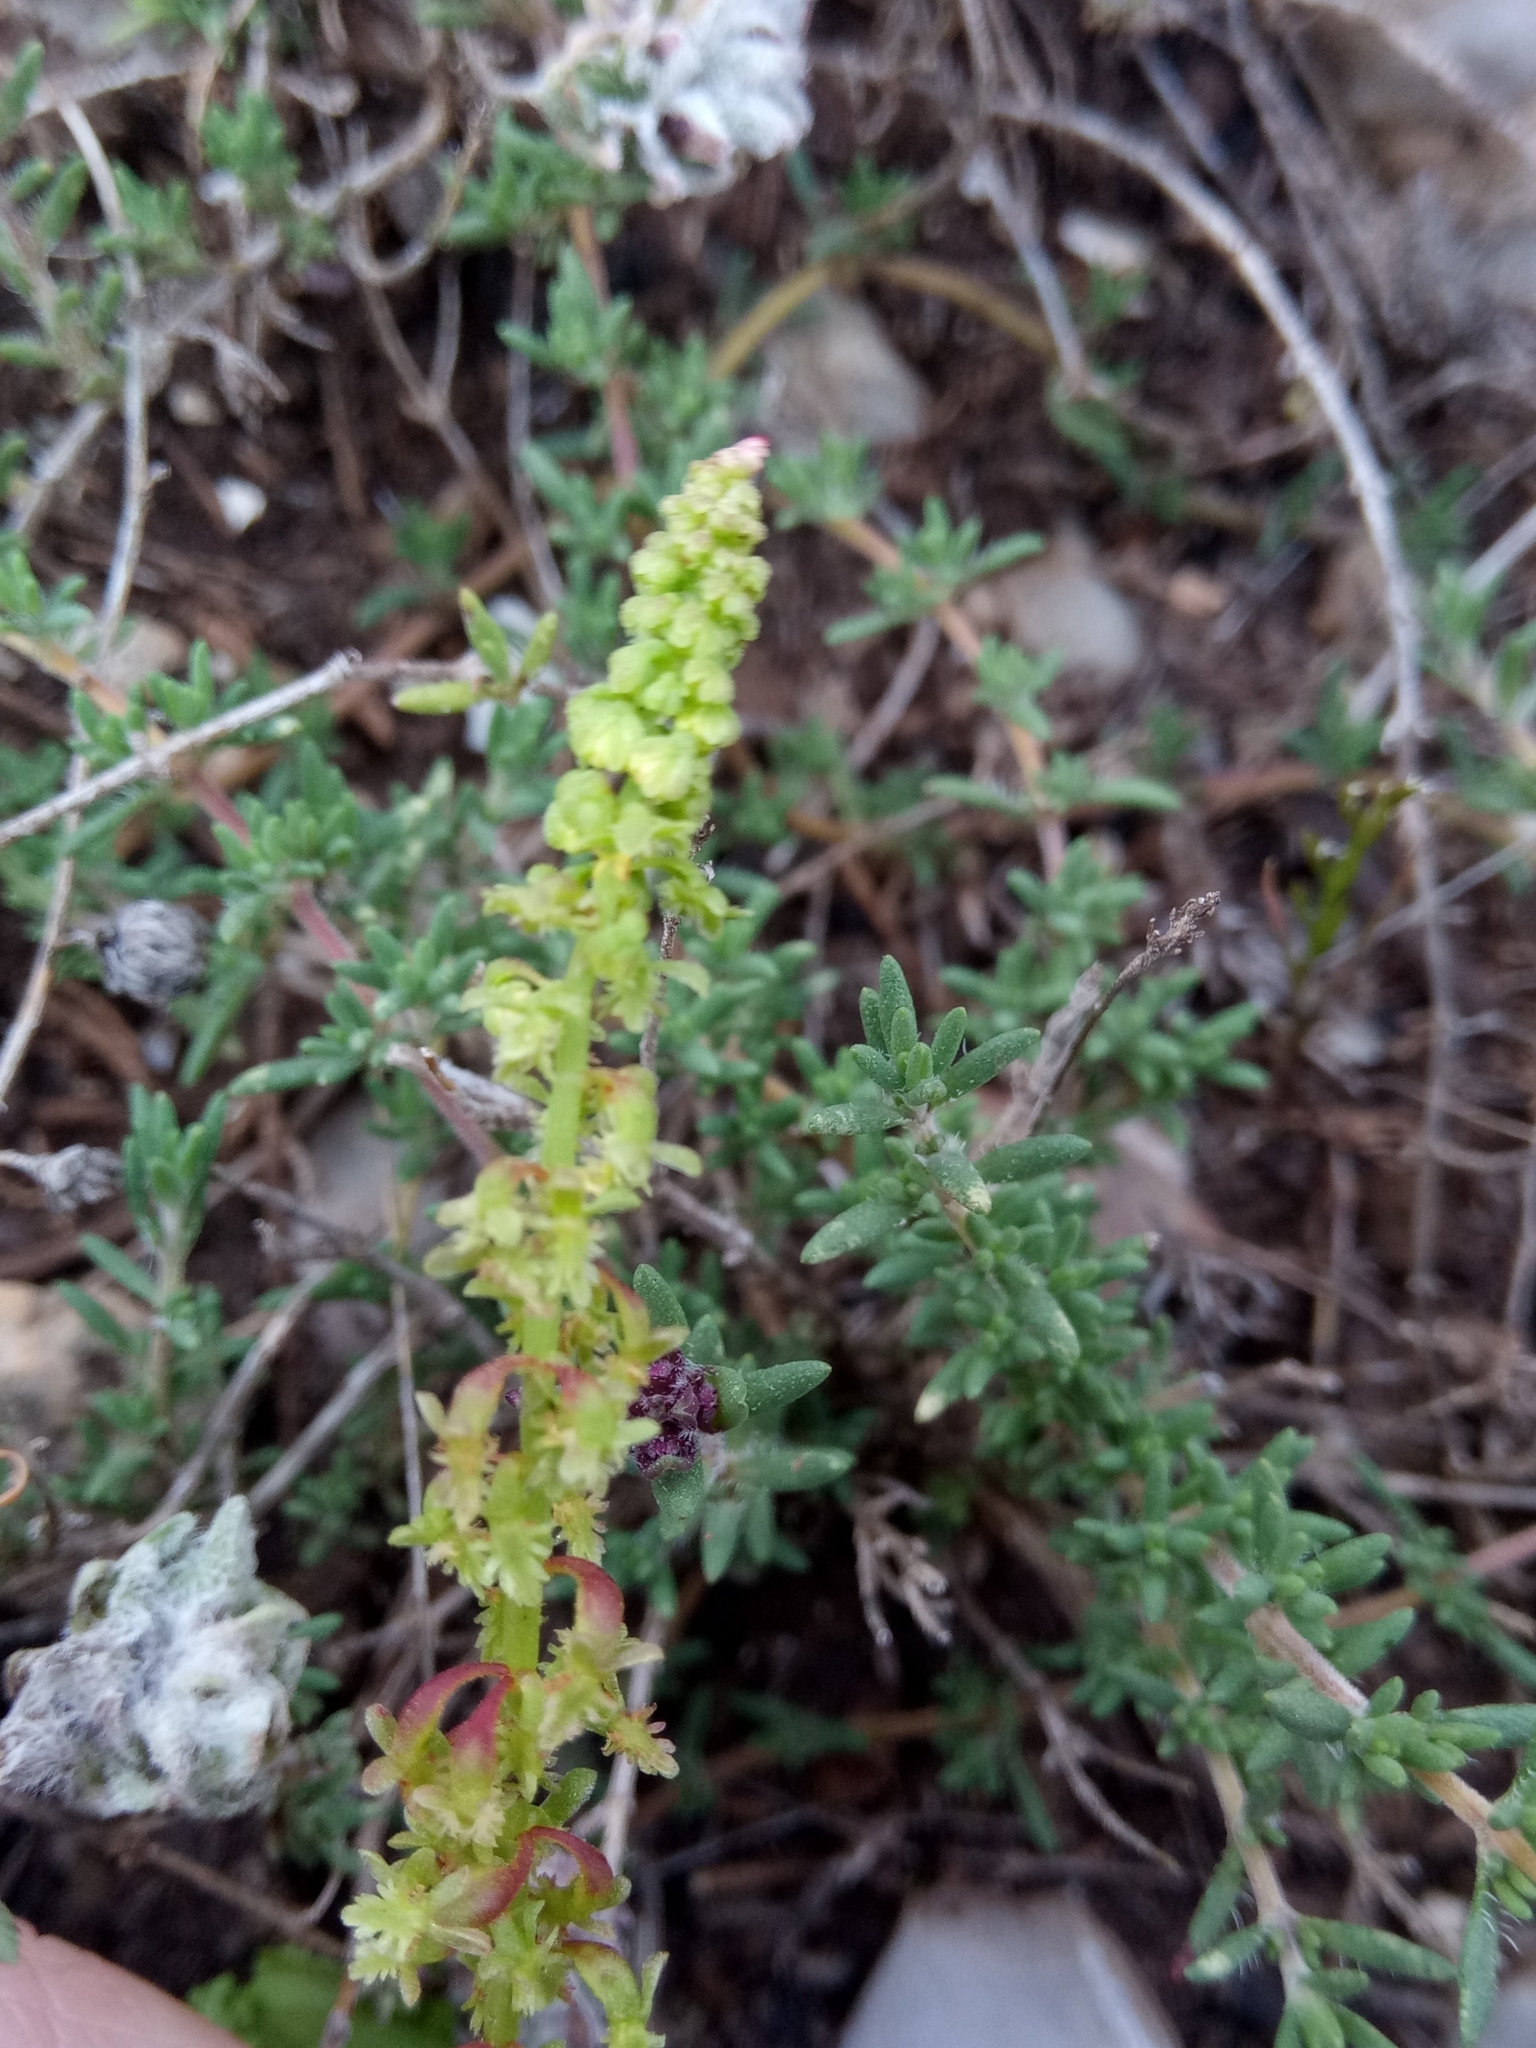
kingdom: Plantae
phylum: Tracheophyta
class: Magnoliopsida
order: Caryophyllales
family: Polygonaceae
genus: Rumex
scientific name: Rumex bucephalophorus
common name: Red dock
